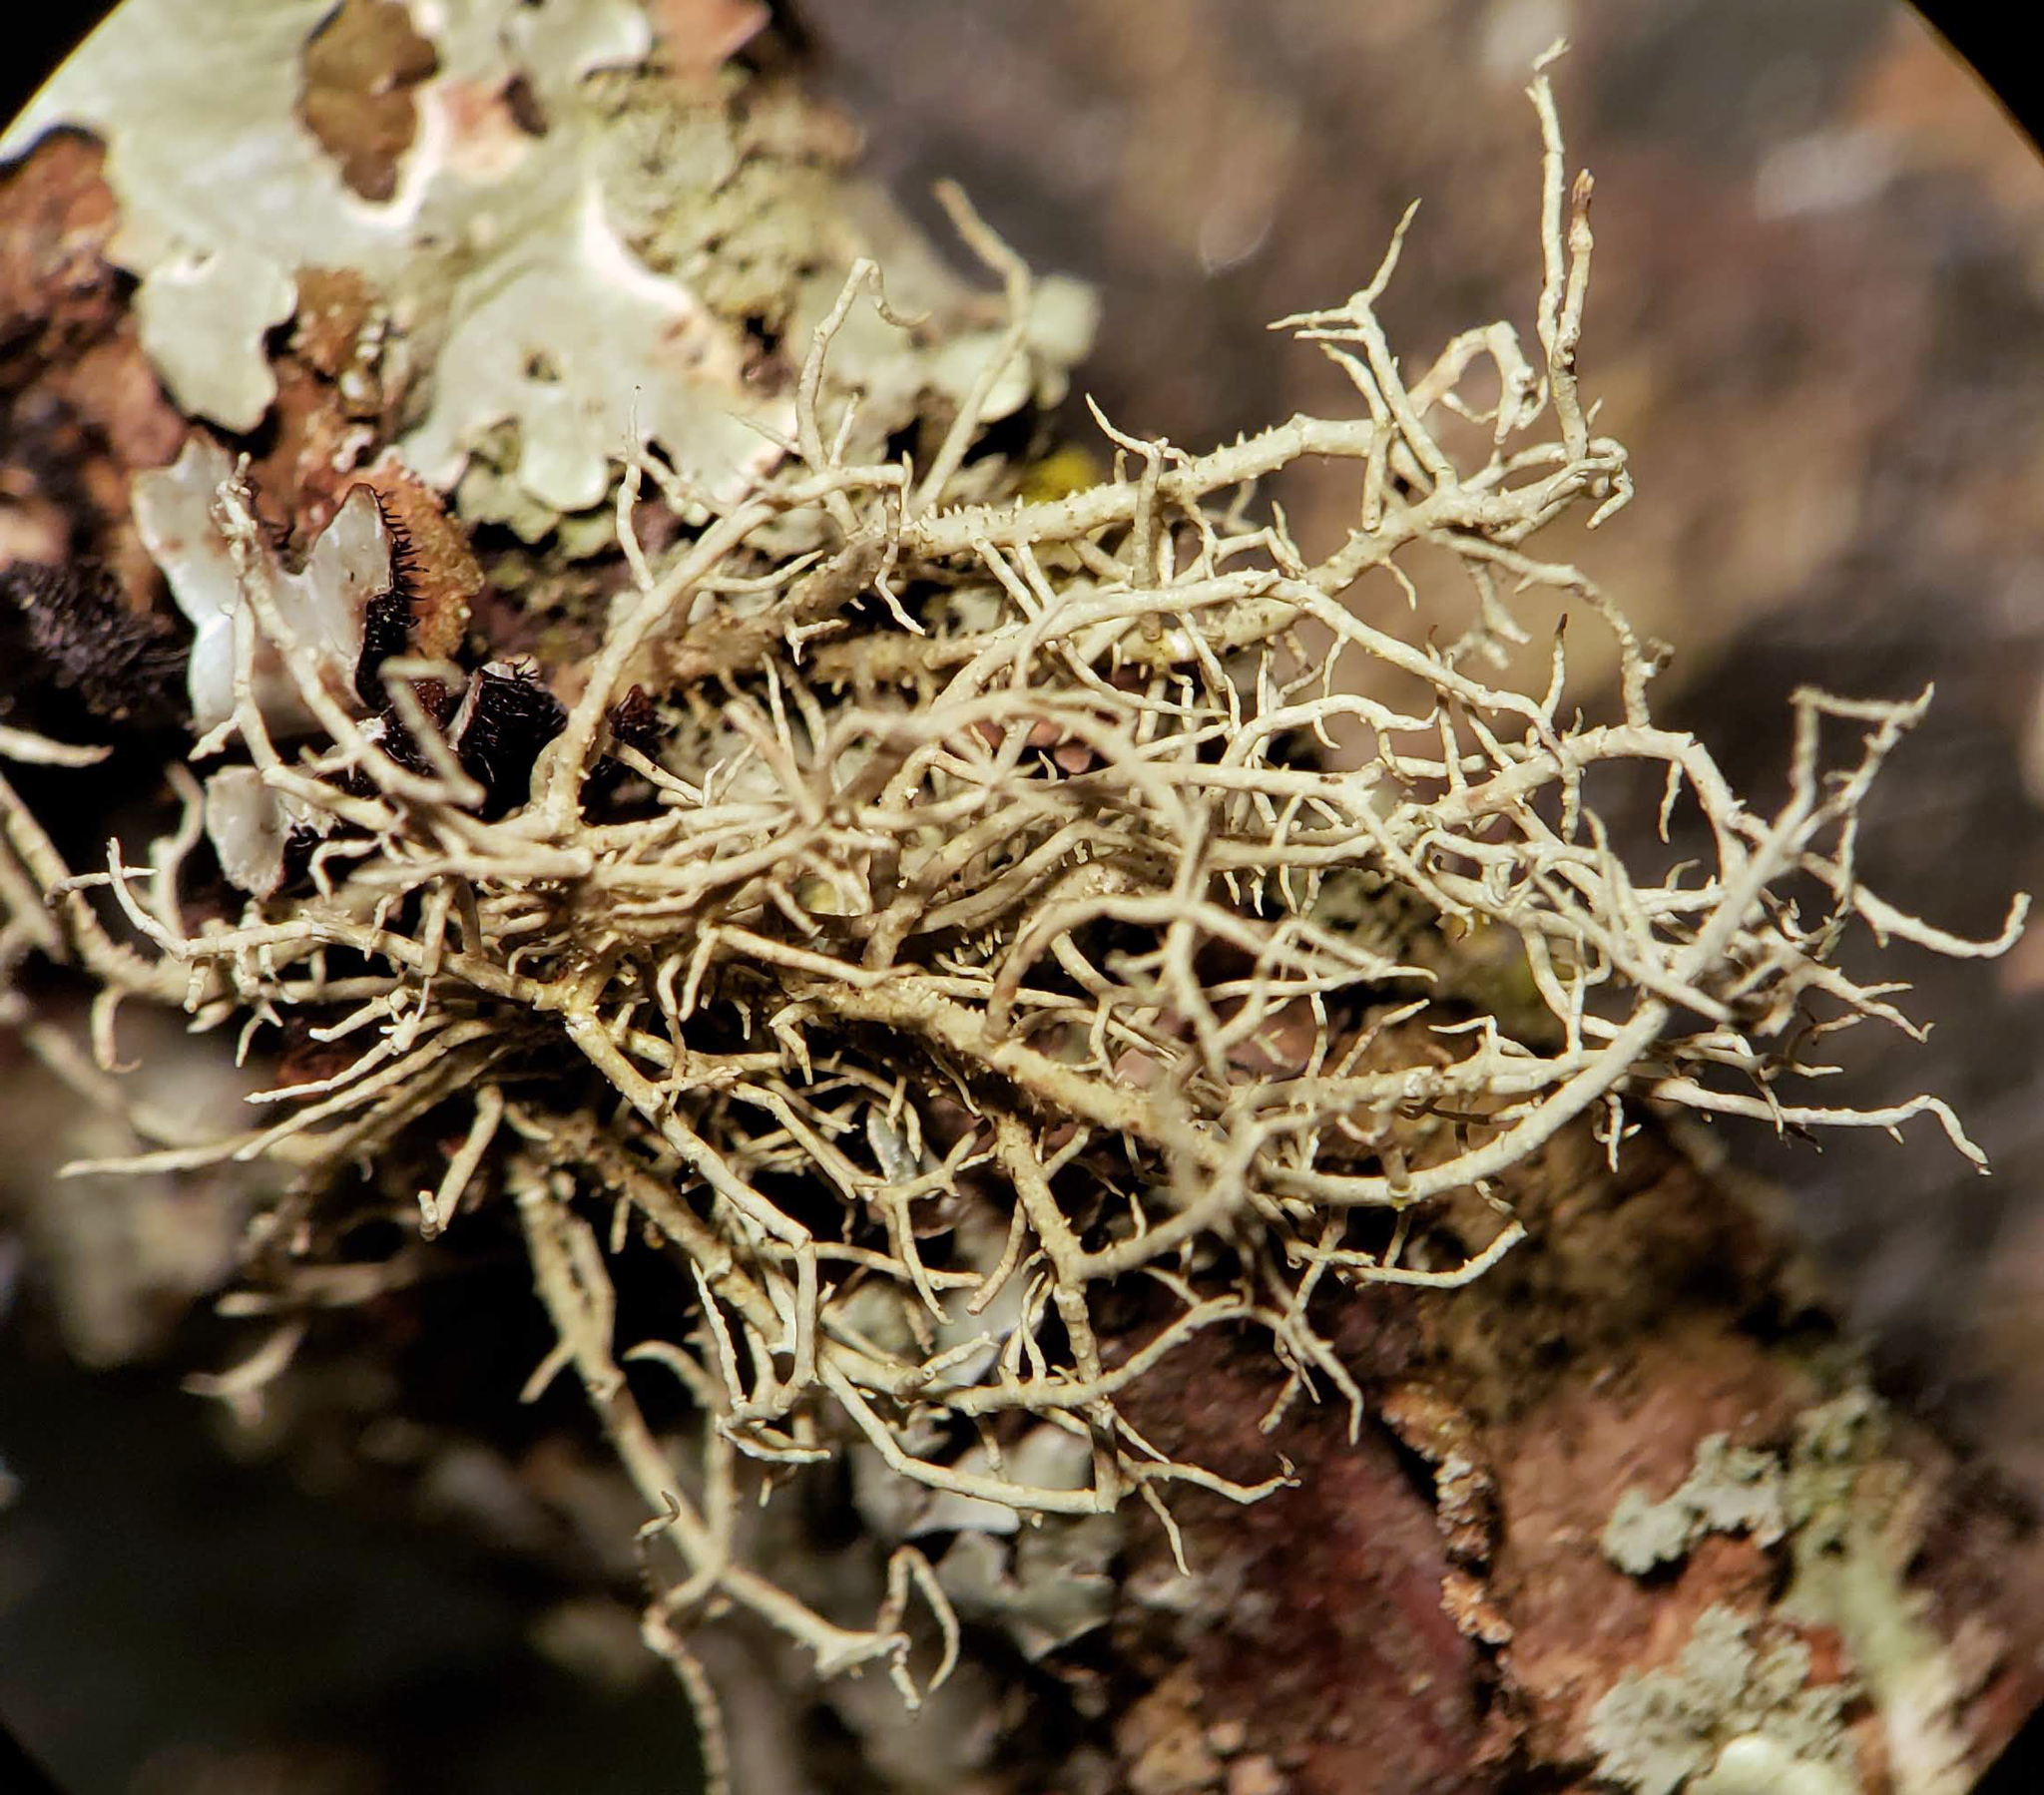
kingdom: Fungi
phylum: Ascomycota
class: Lecanoromycetes
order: Lecanorales
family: Parmeliaceae
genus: Usnea
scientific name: Usnea
